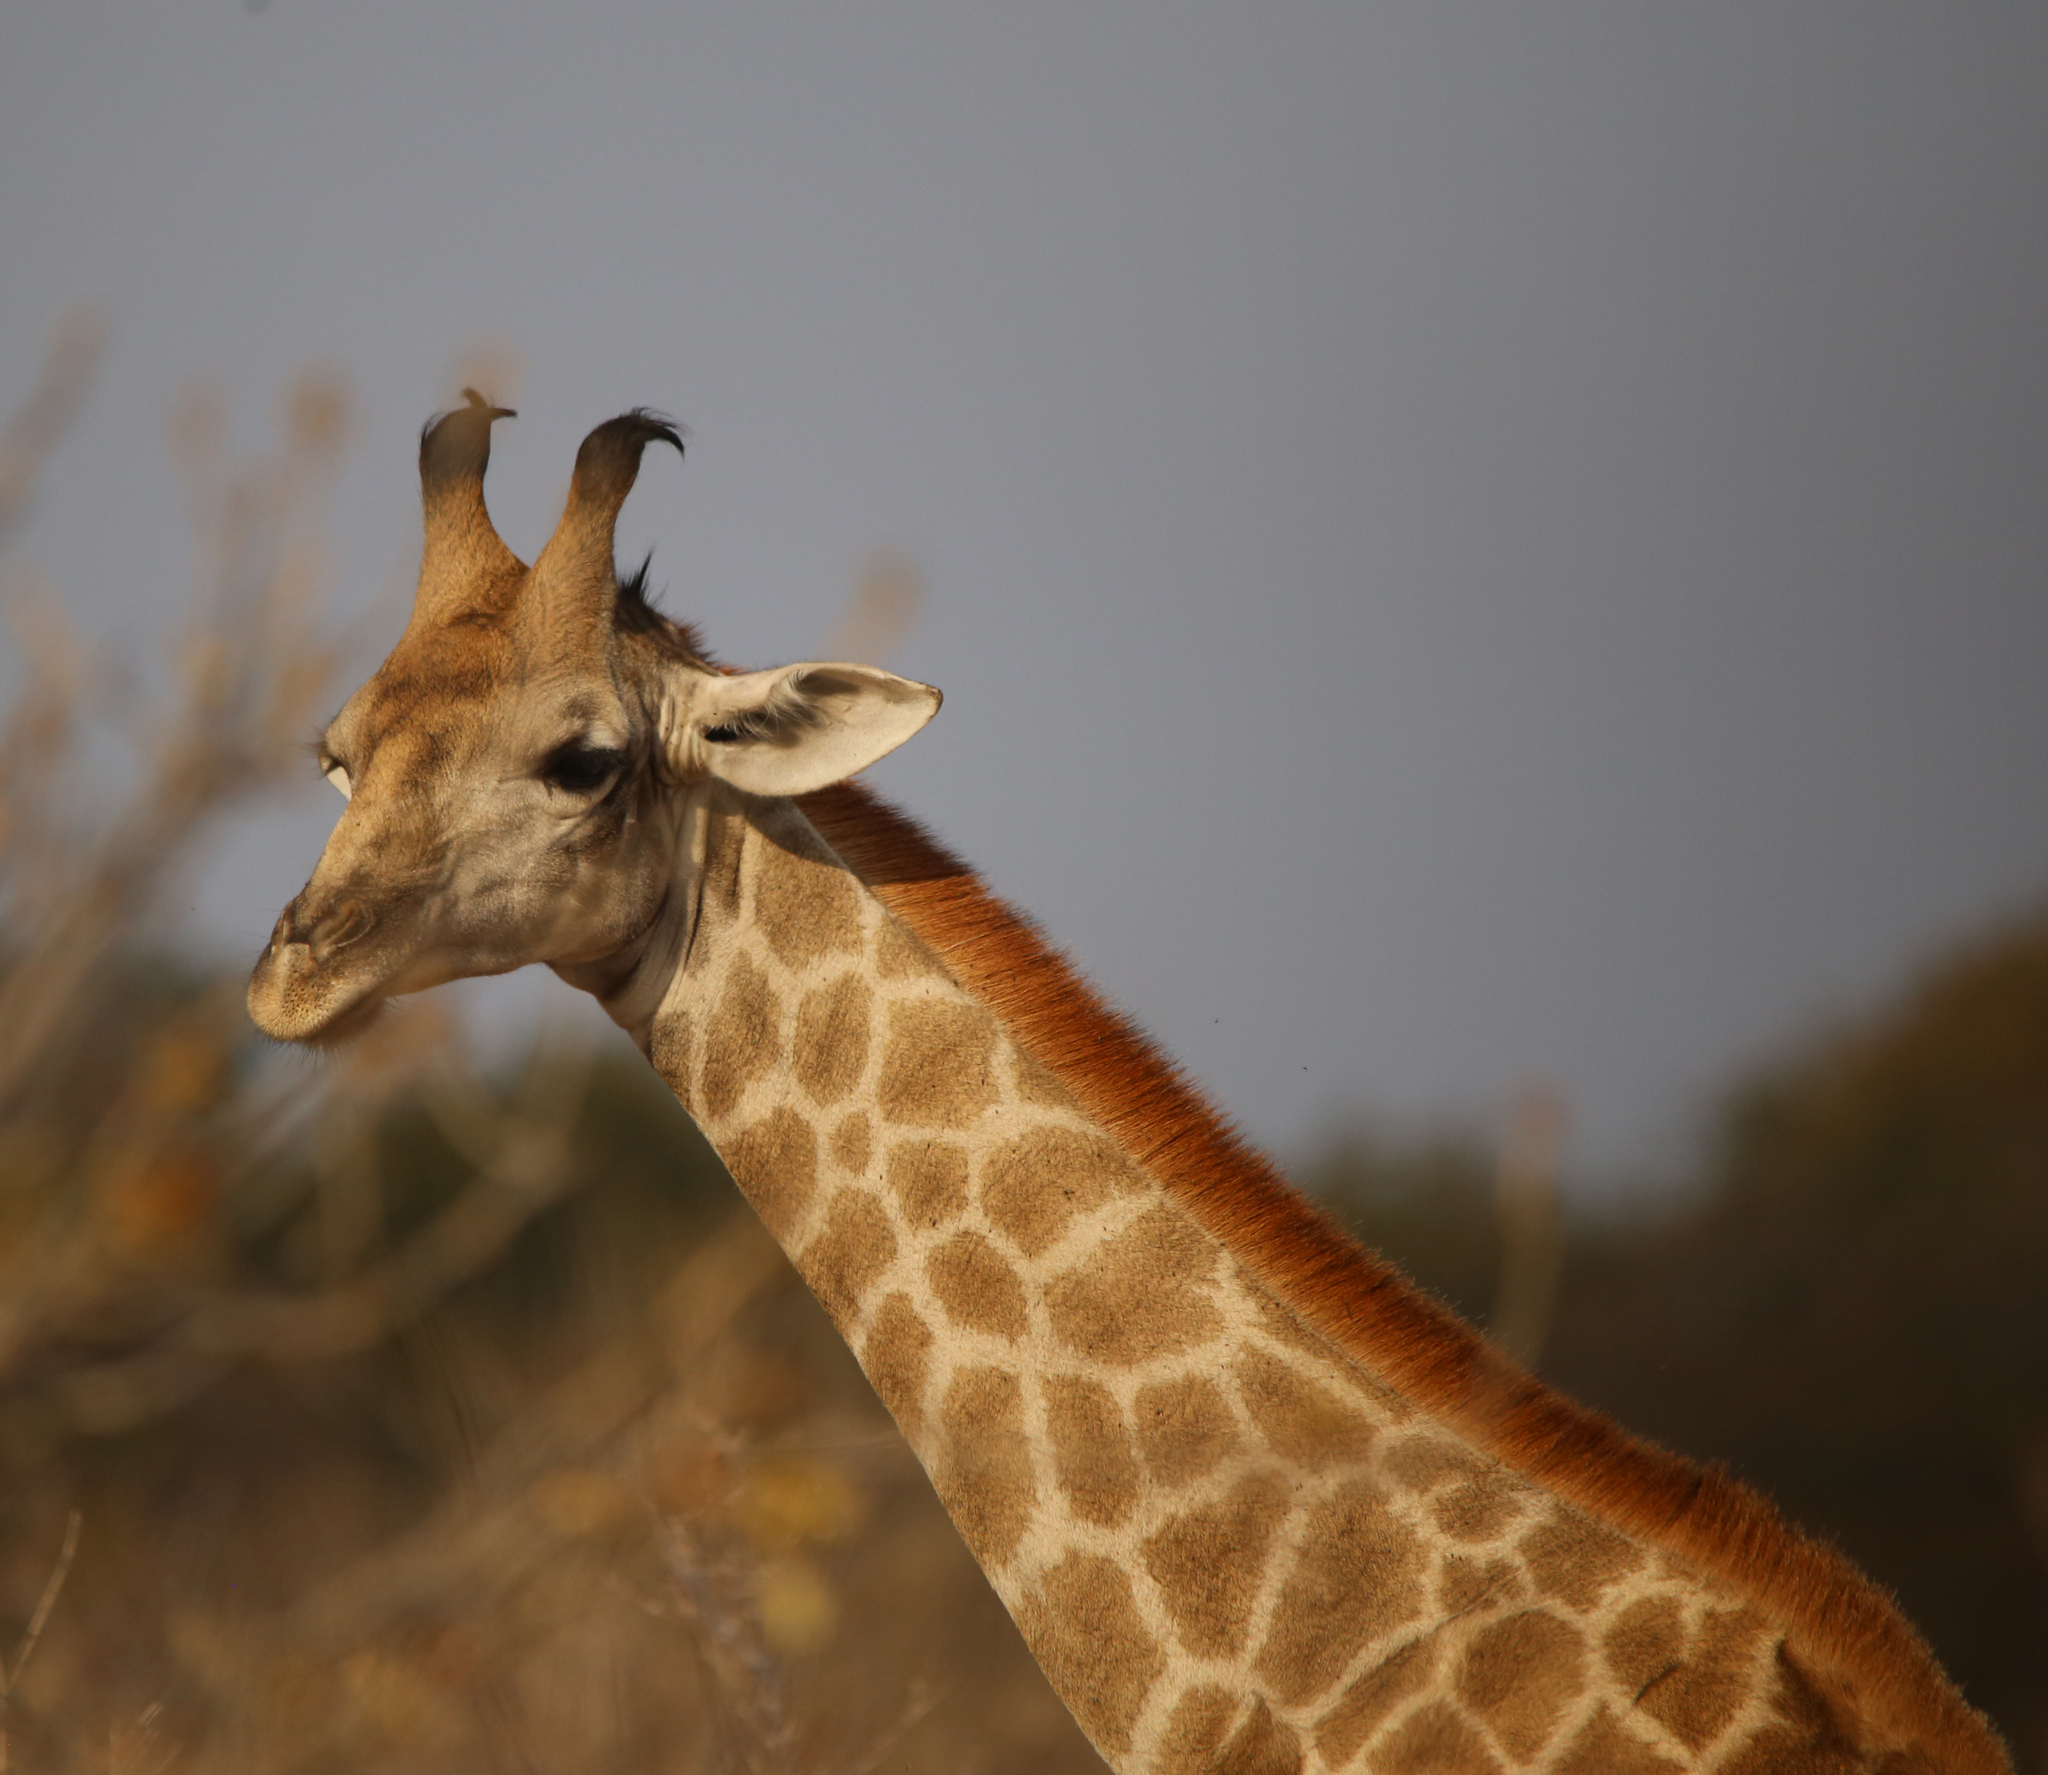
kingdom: Animalia
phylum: Chordata
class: Mammalia
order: Artiodactyla
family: Giraffidae
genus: Giraffa
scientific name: Giraffa giraffa
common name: Southern giraffe
